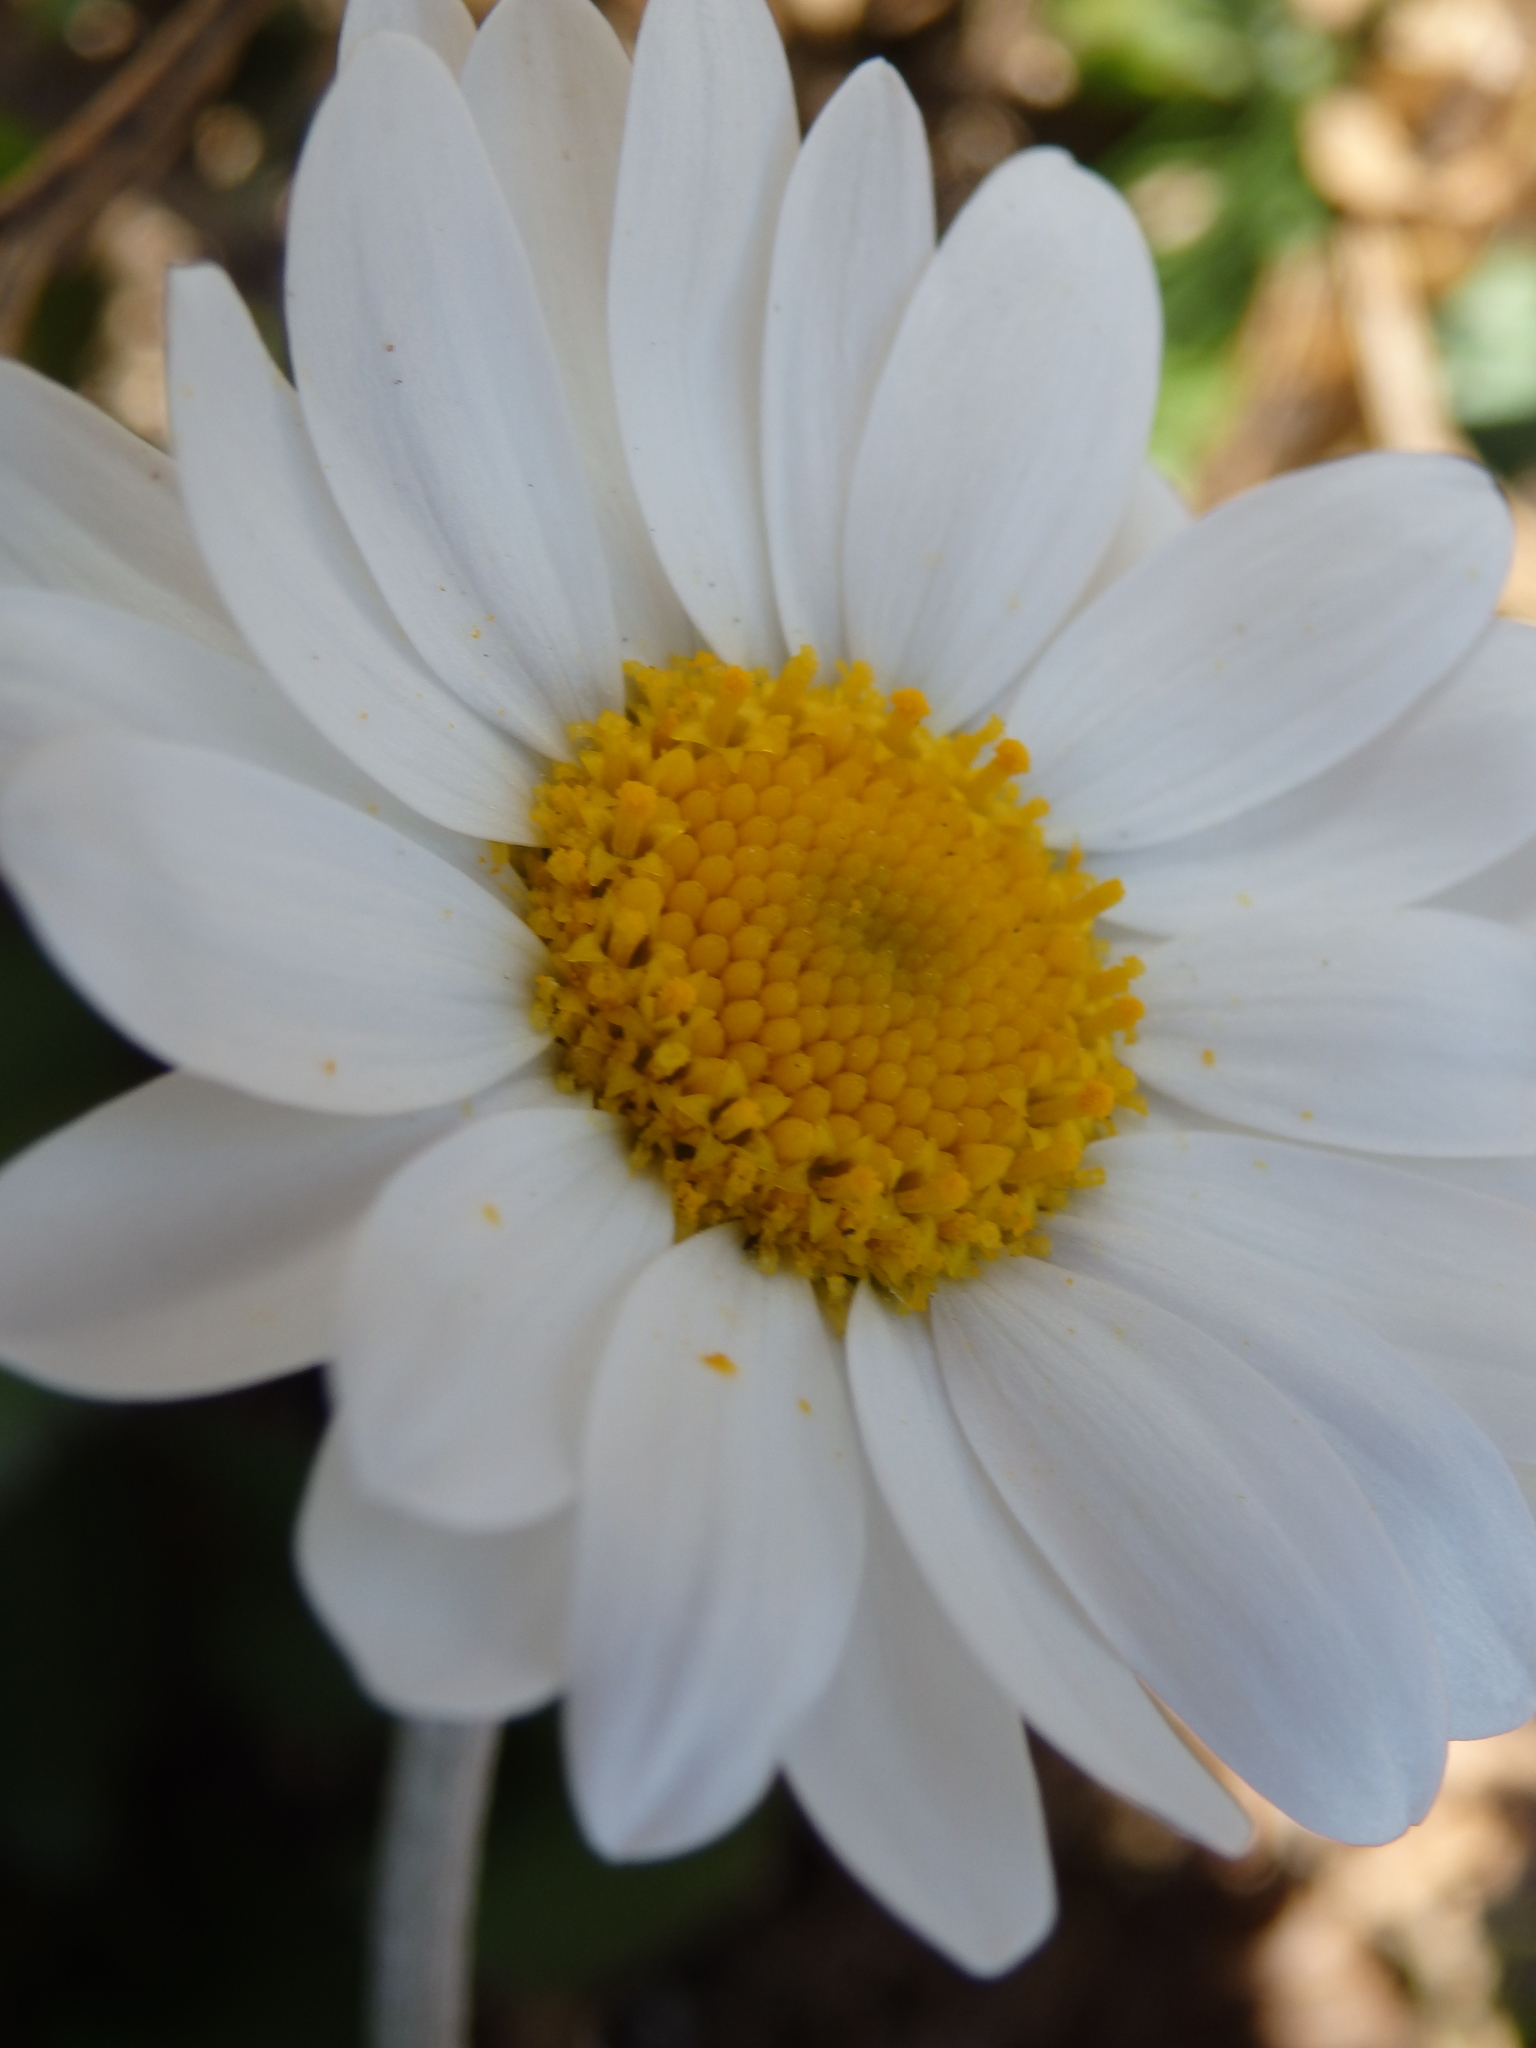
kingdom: Plantae
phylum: Tracheophyta
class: Magnoliopsida
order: Asterales
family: Asteraceae
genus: Phalacrocarpum
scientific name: Phalacrocarpum oppositifolium
